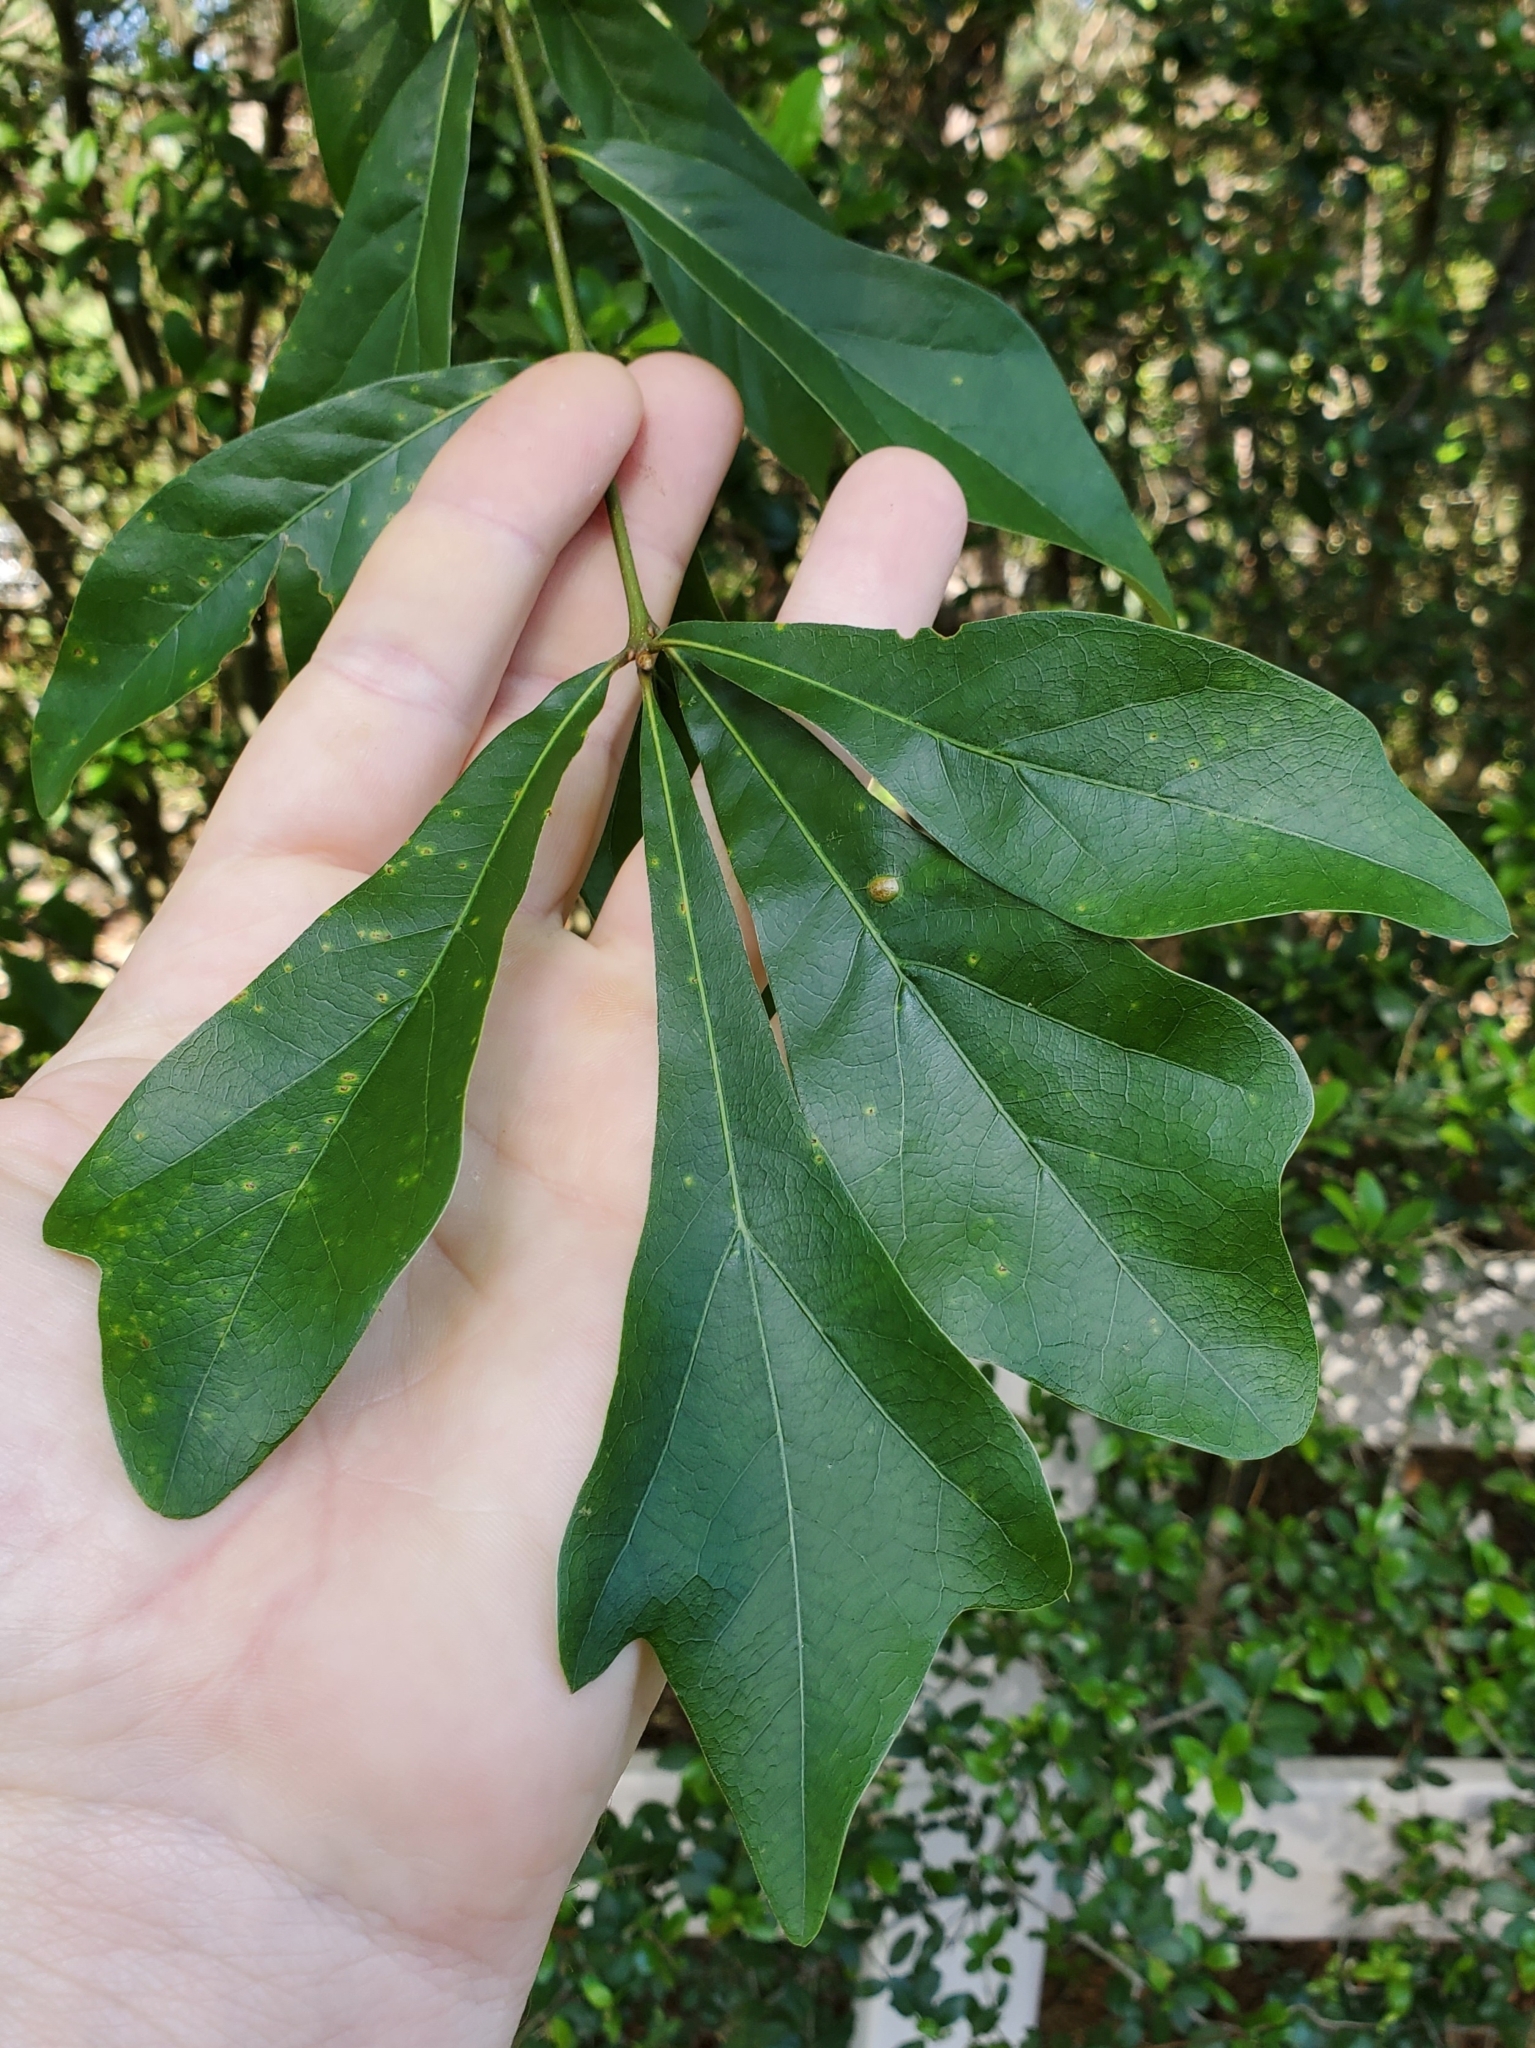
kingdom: Animalia
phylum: Arthropoda
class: Insecta
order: Diptera
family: Cecidomyiidae
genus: Polystepha
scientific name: Polystepha pilulae
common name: Oak leaf gall midge
